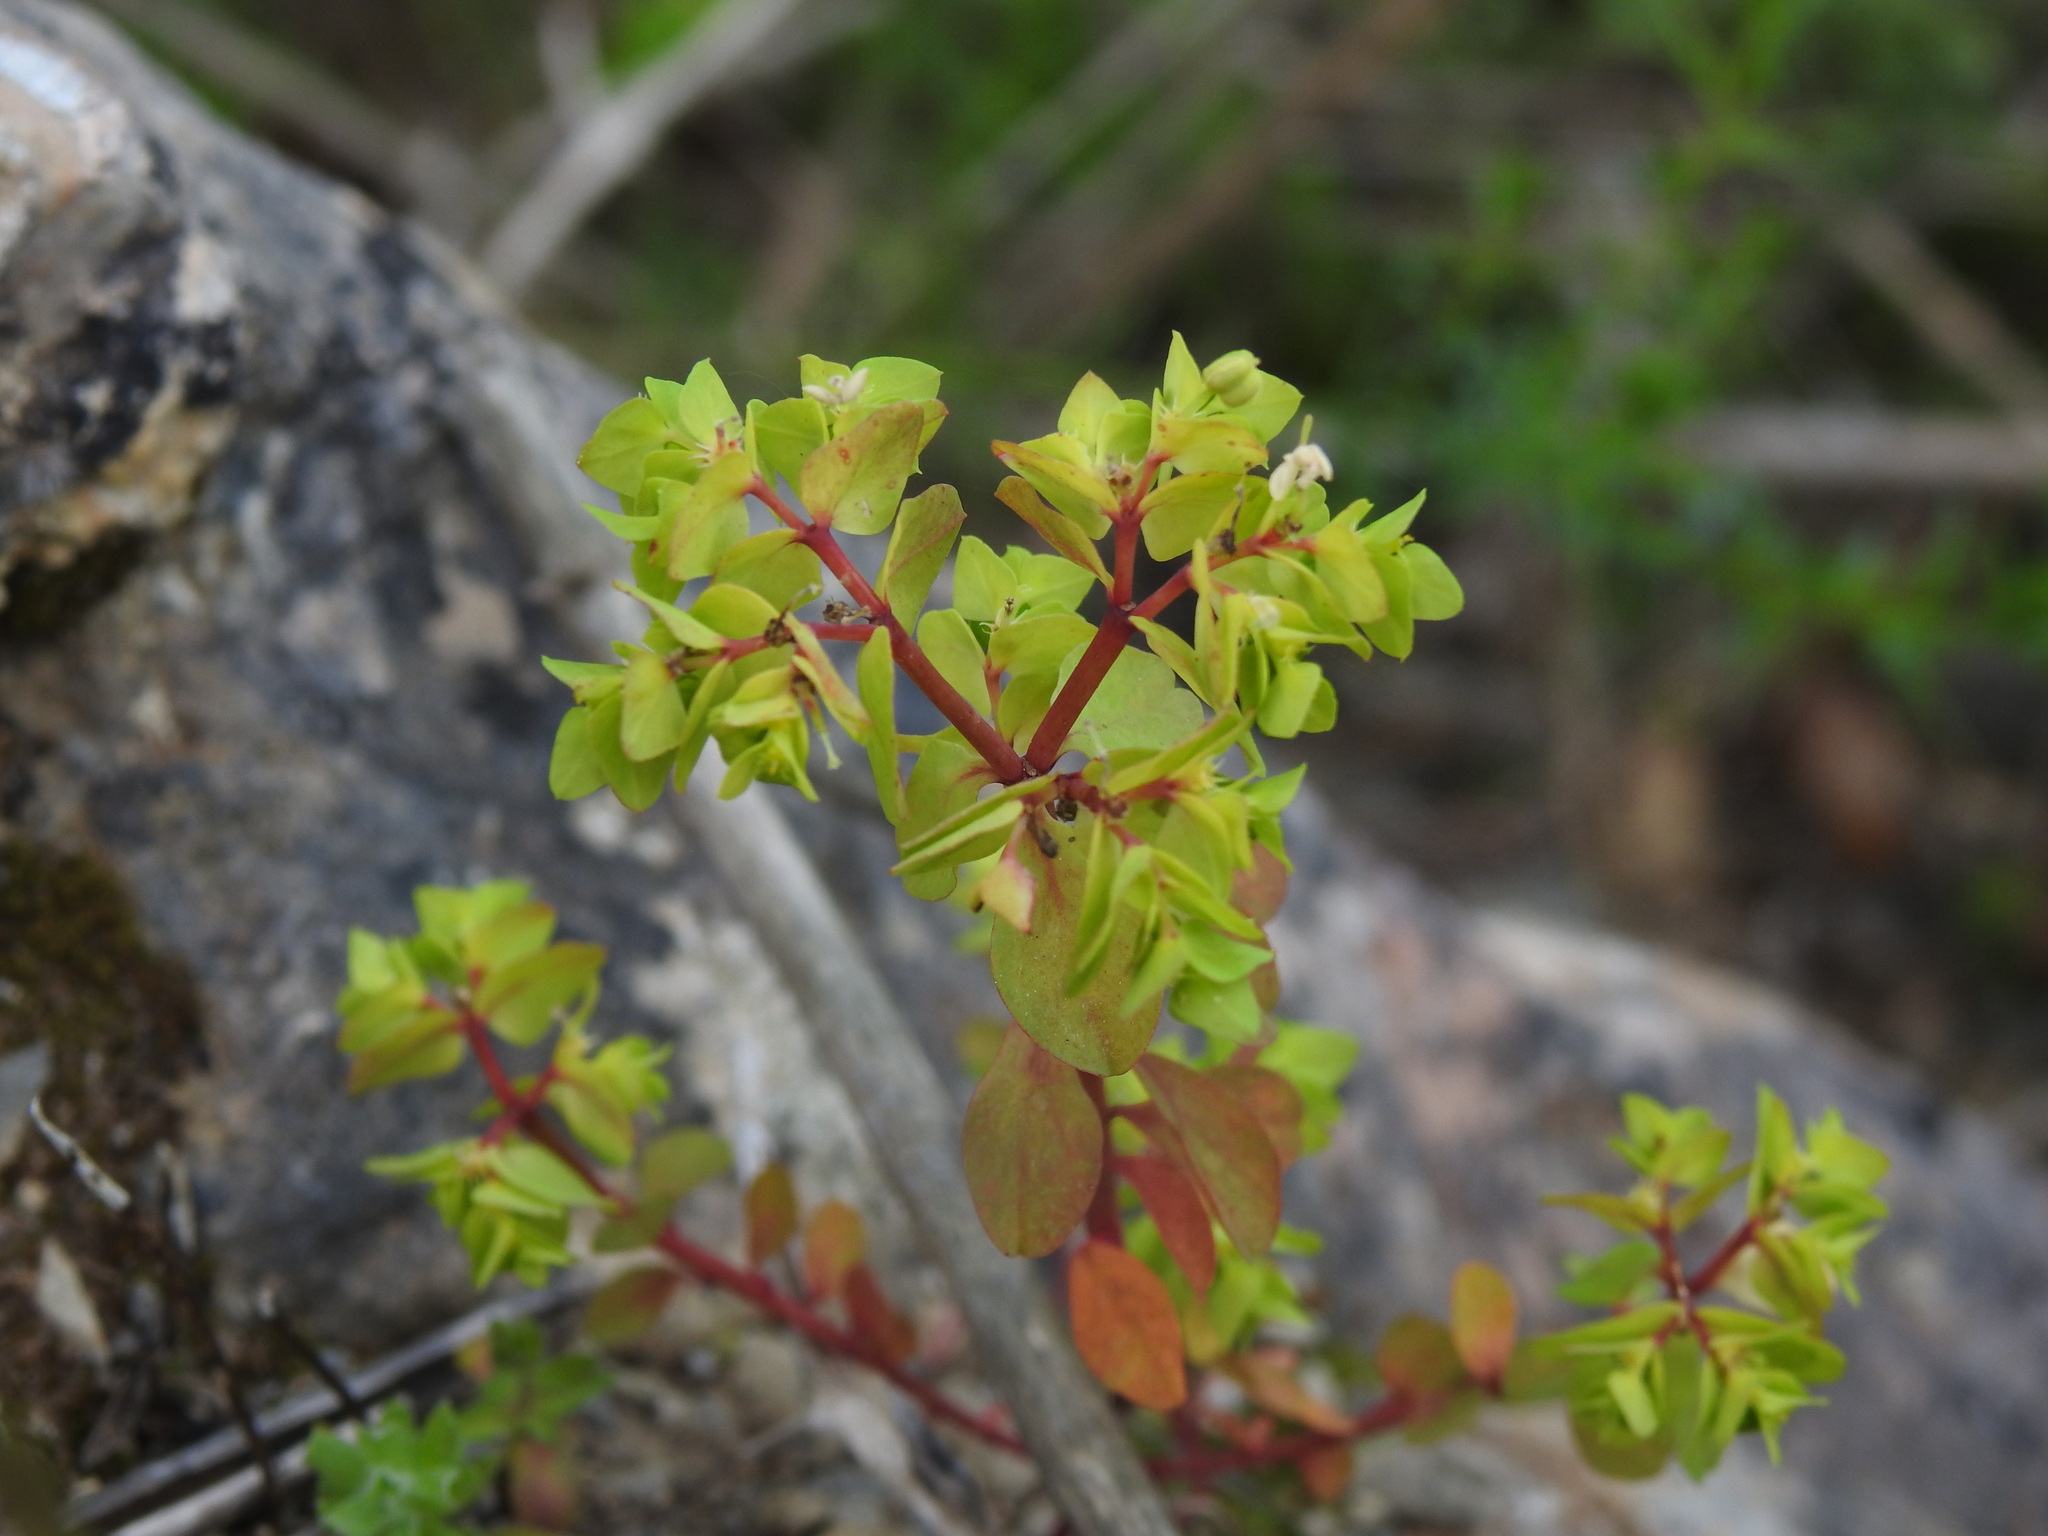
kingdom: Plantae
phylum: Tracheophyta
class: Magnoliopsida
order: Malpighiales
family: Euphorbiaceae
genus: Euphorbia
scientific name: Euphorbia peplus
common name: Petty spurge
